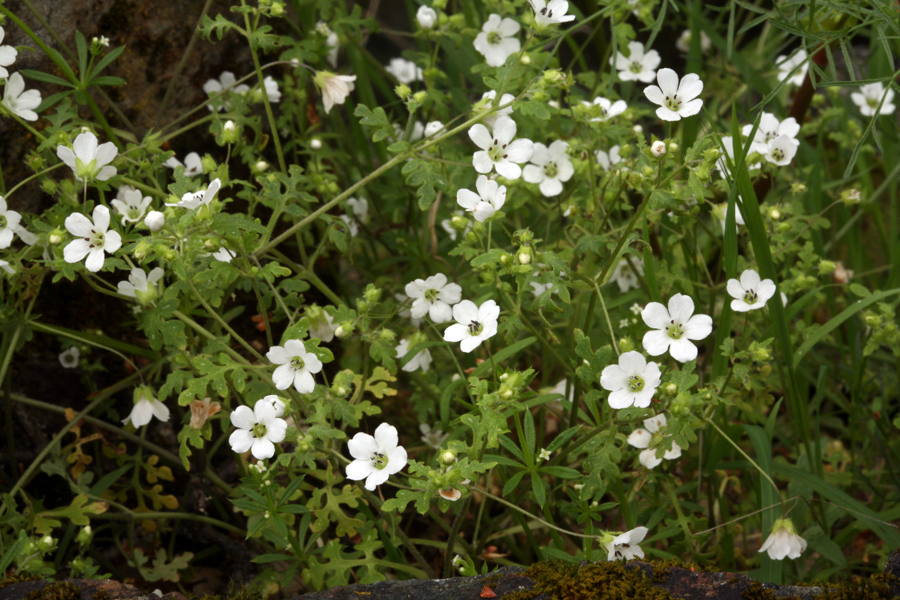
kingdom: Plantae
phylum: Tracheophyta
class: Magnoliopsida
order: Boraginales
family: Hydrophyllaceae
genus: Nemophila
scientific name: Nemophila heterophylla
